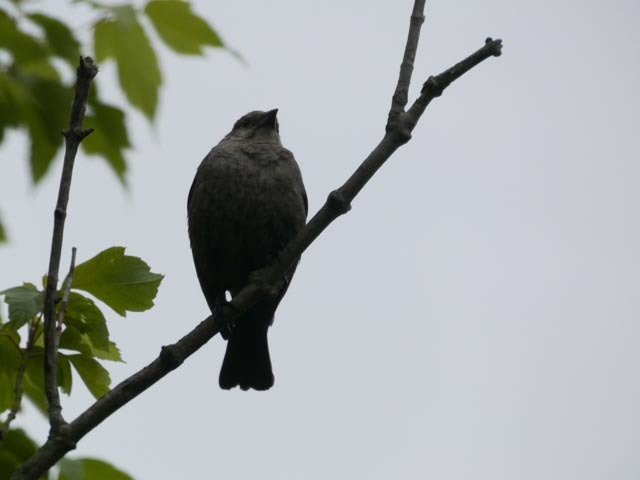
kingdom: Animalia
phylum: Chordata
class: Aves
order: Passeriformes
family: Icteridae
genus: Molothrus
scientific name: Molothrus ater
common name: Brown-headed cowbird
